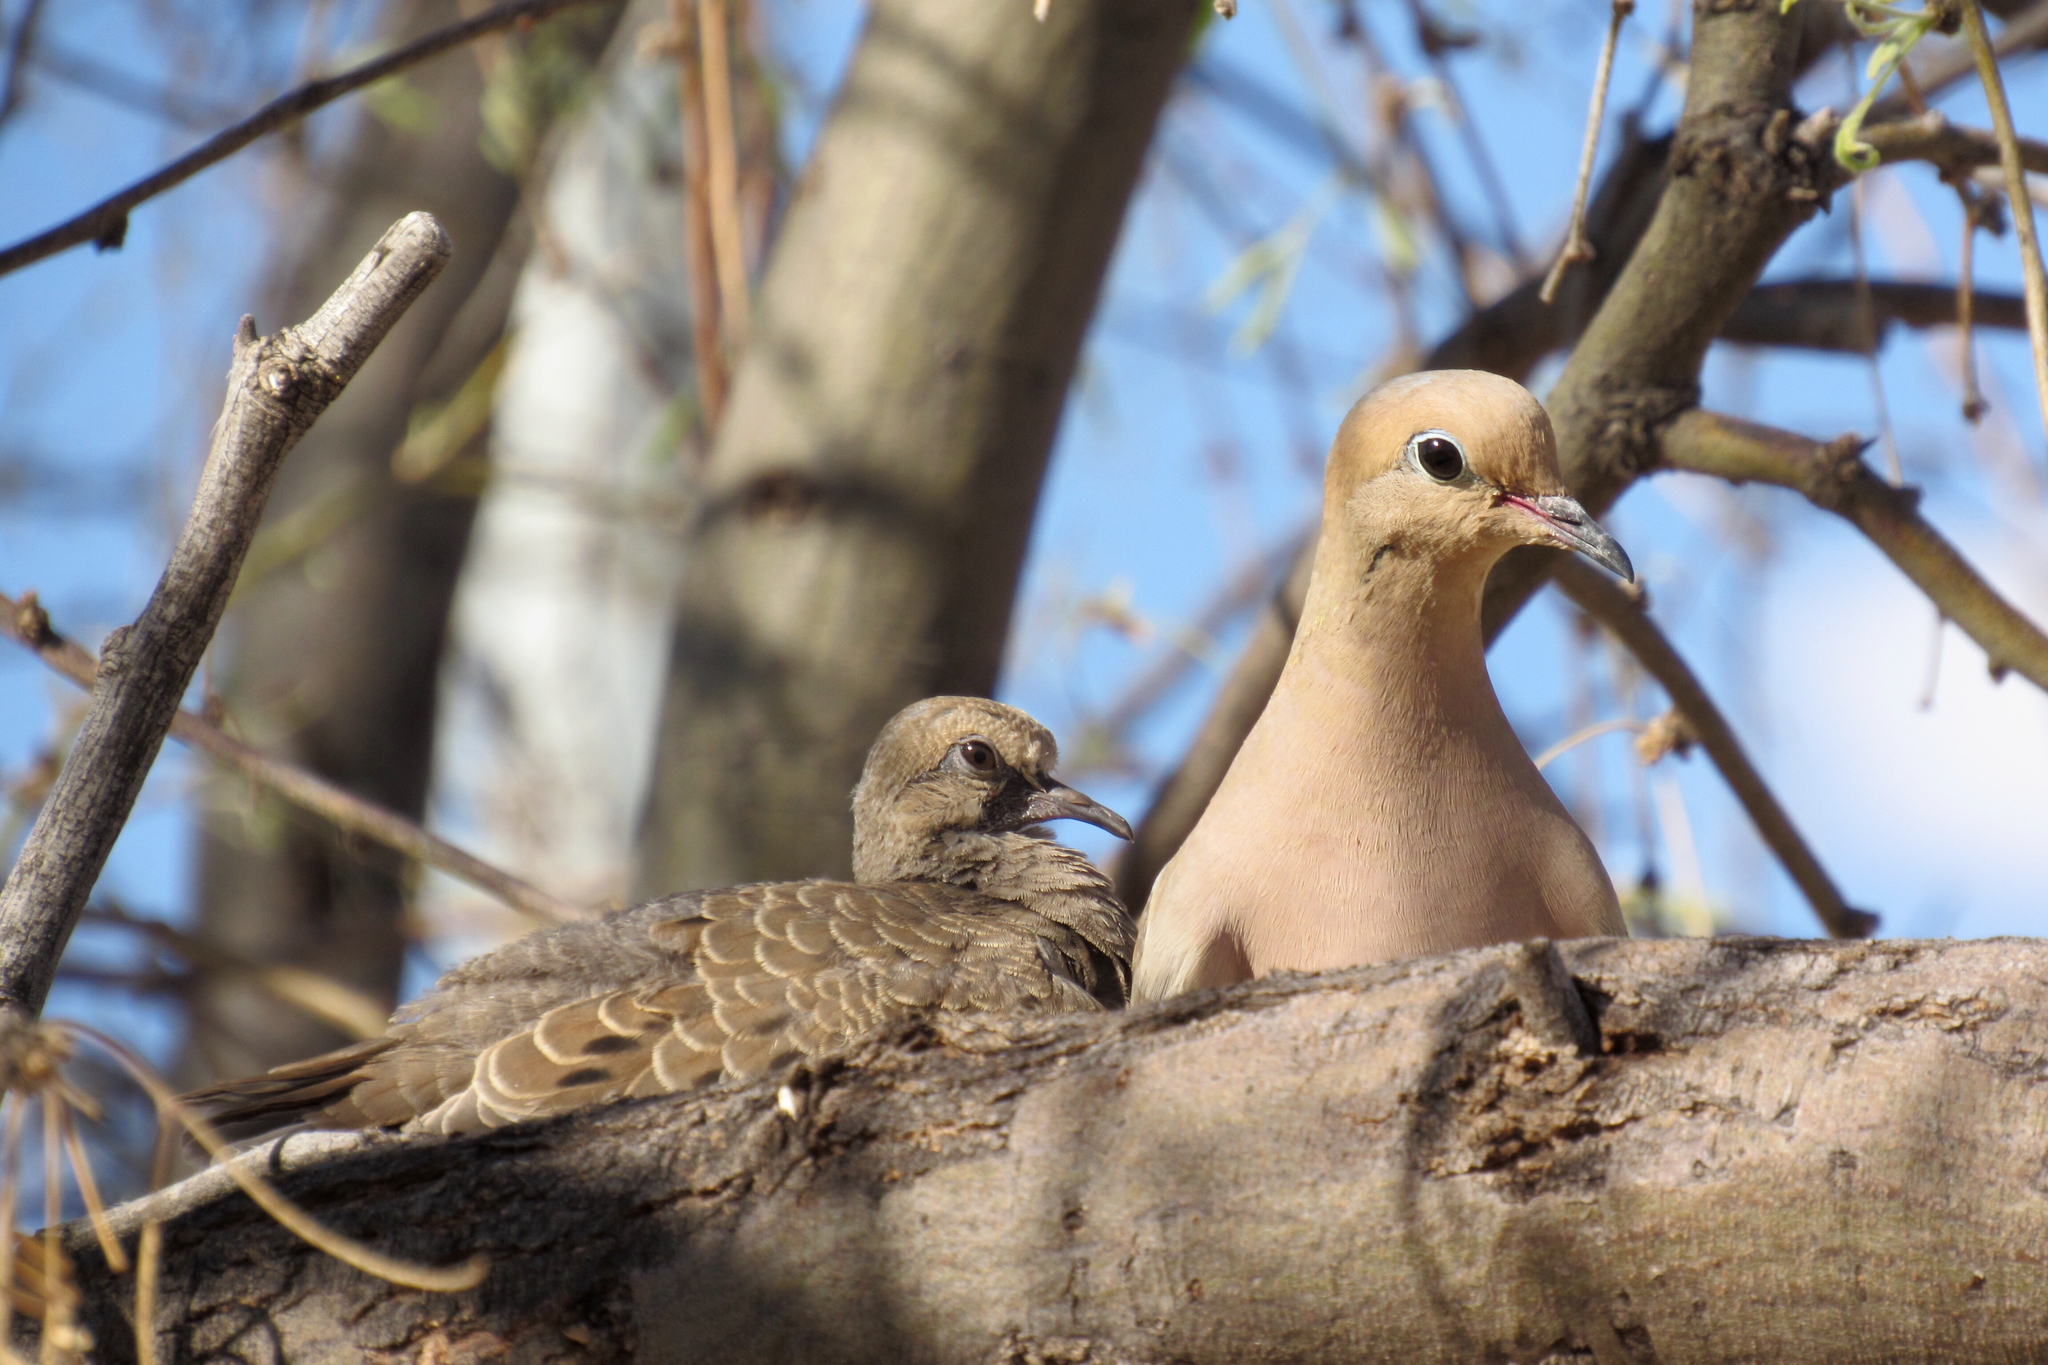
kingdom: Animalia
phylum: Chordata
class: Aves
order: Columbiformes
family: Columbidae
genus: Zenaida
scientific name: Zenaida macroura
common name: Mourning dove
